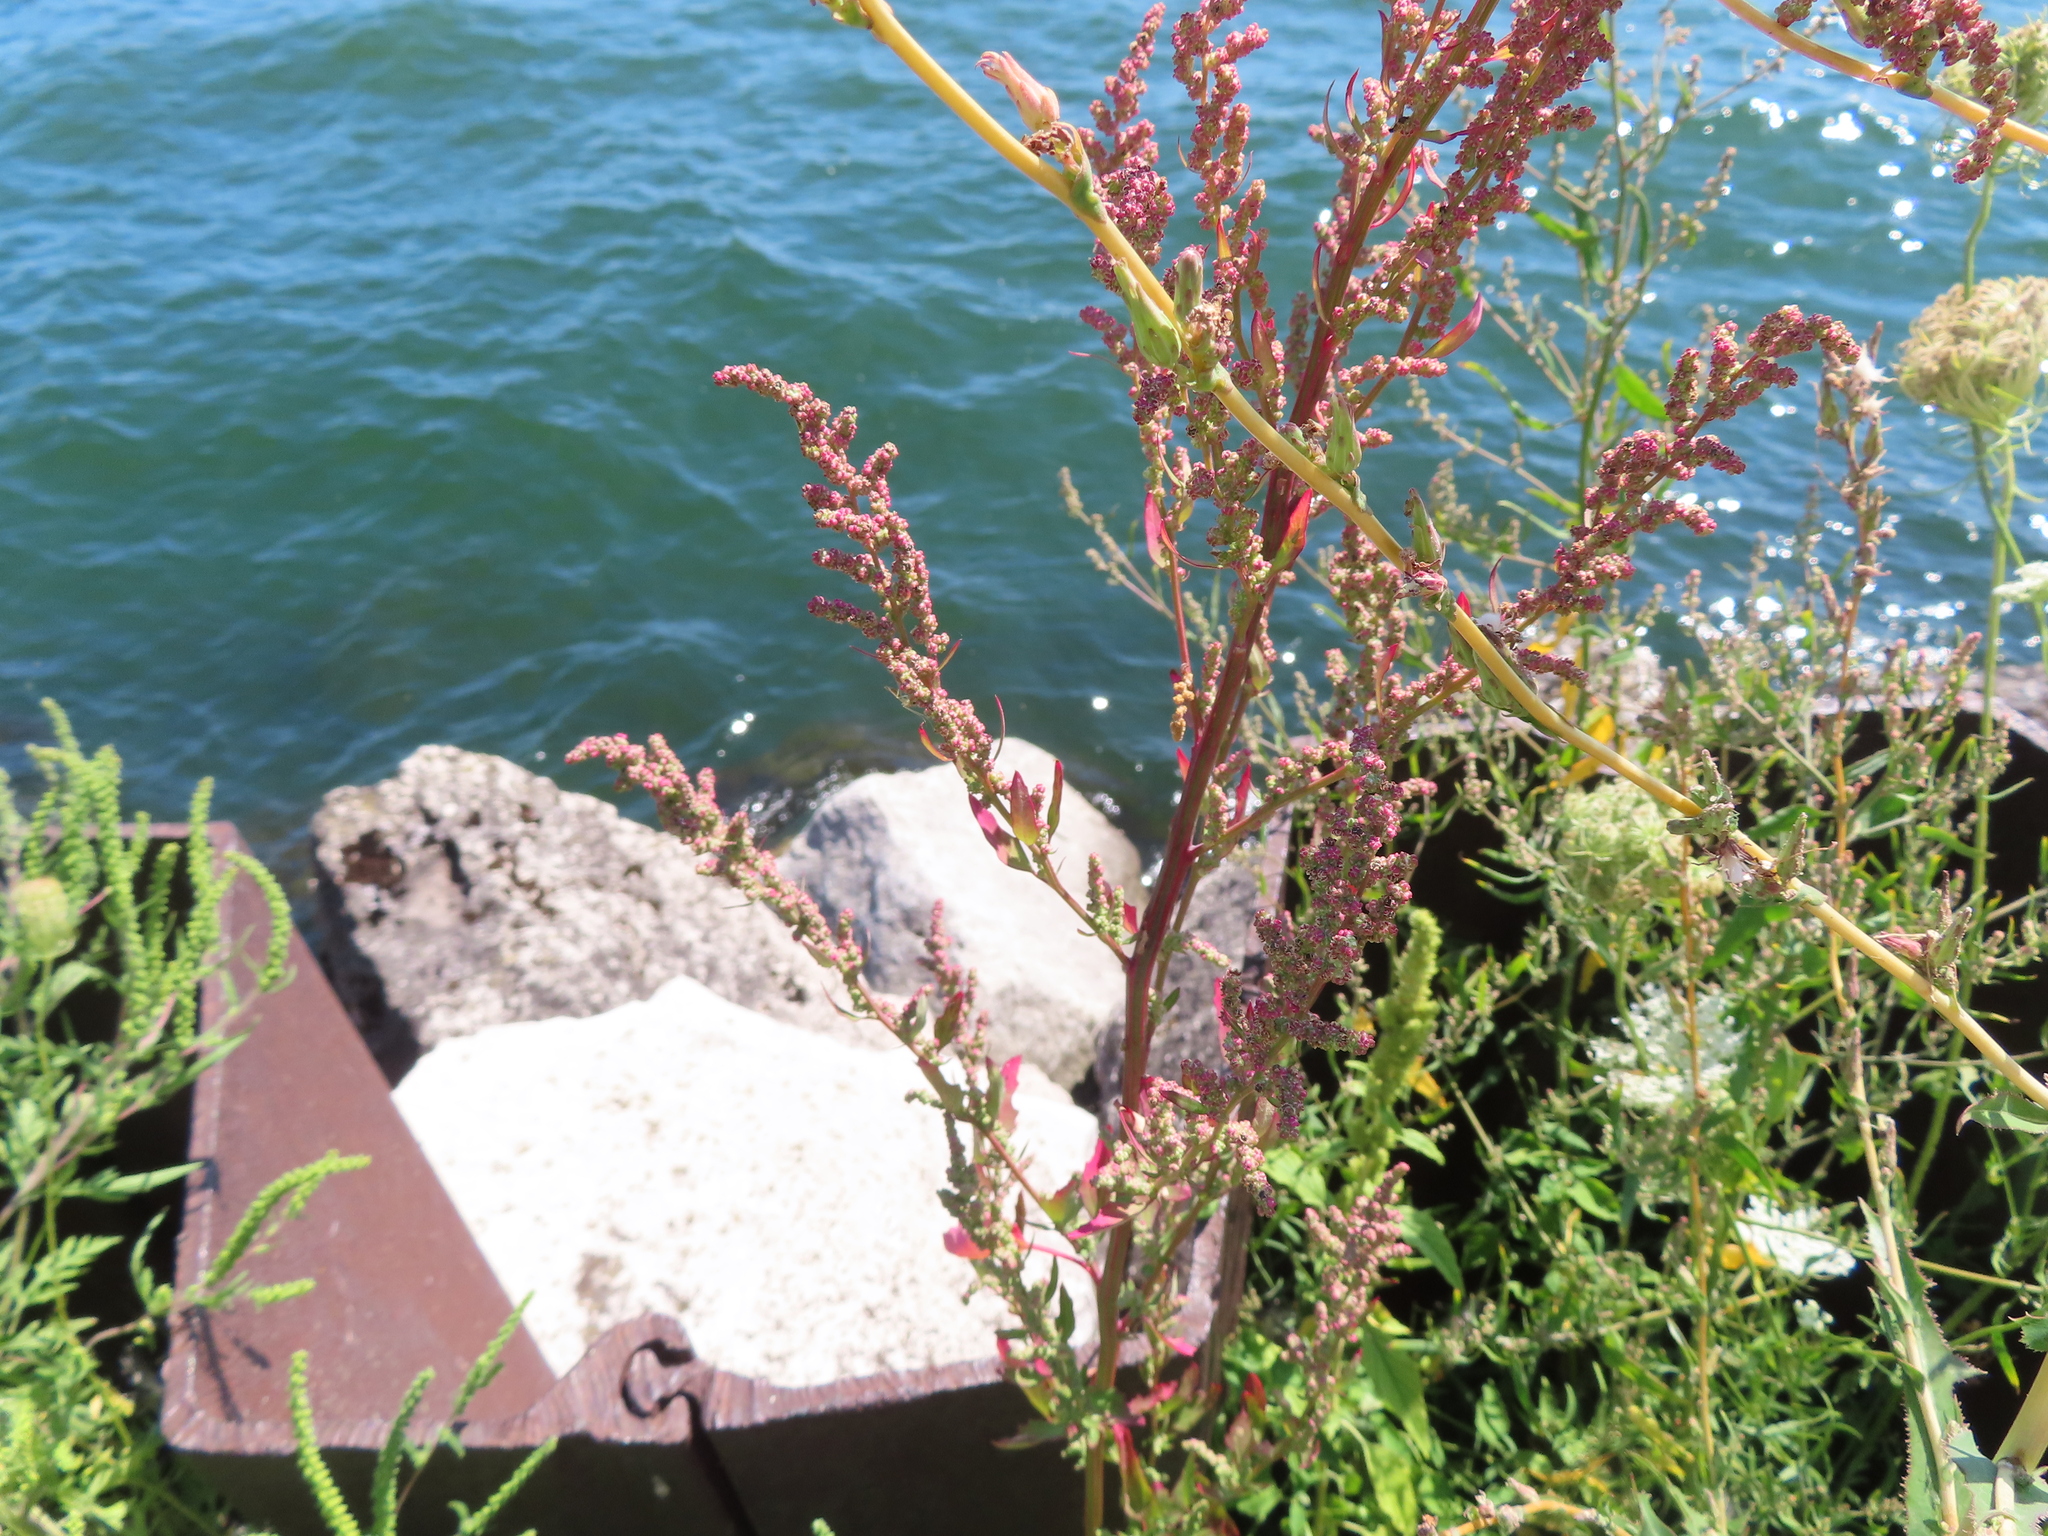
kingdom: Plantae
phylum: Tracheophyta
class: Magnoliopsida
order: Caryophyllales
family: Amaranthaceae
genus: Chenopodium
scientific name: Chenopodium album
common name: Fat-hen
